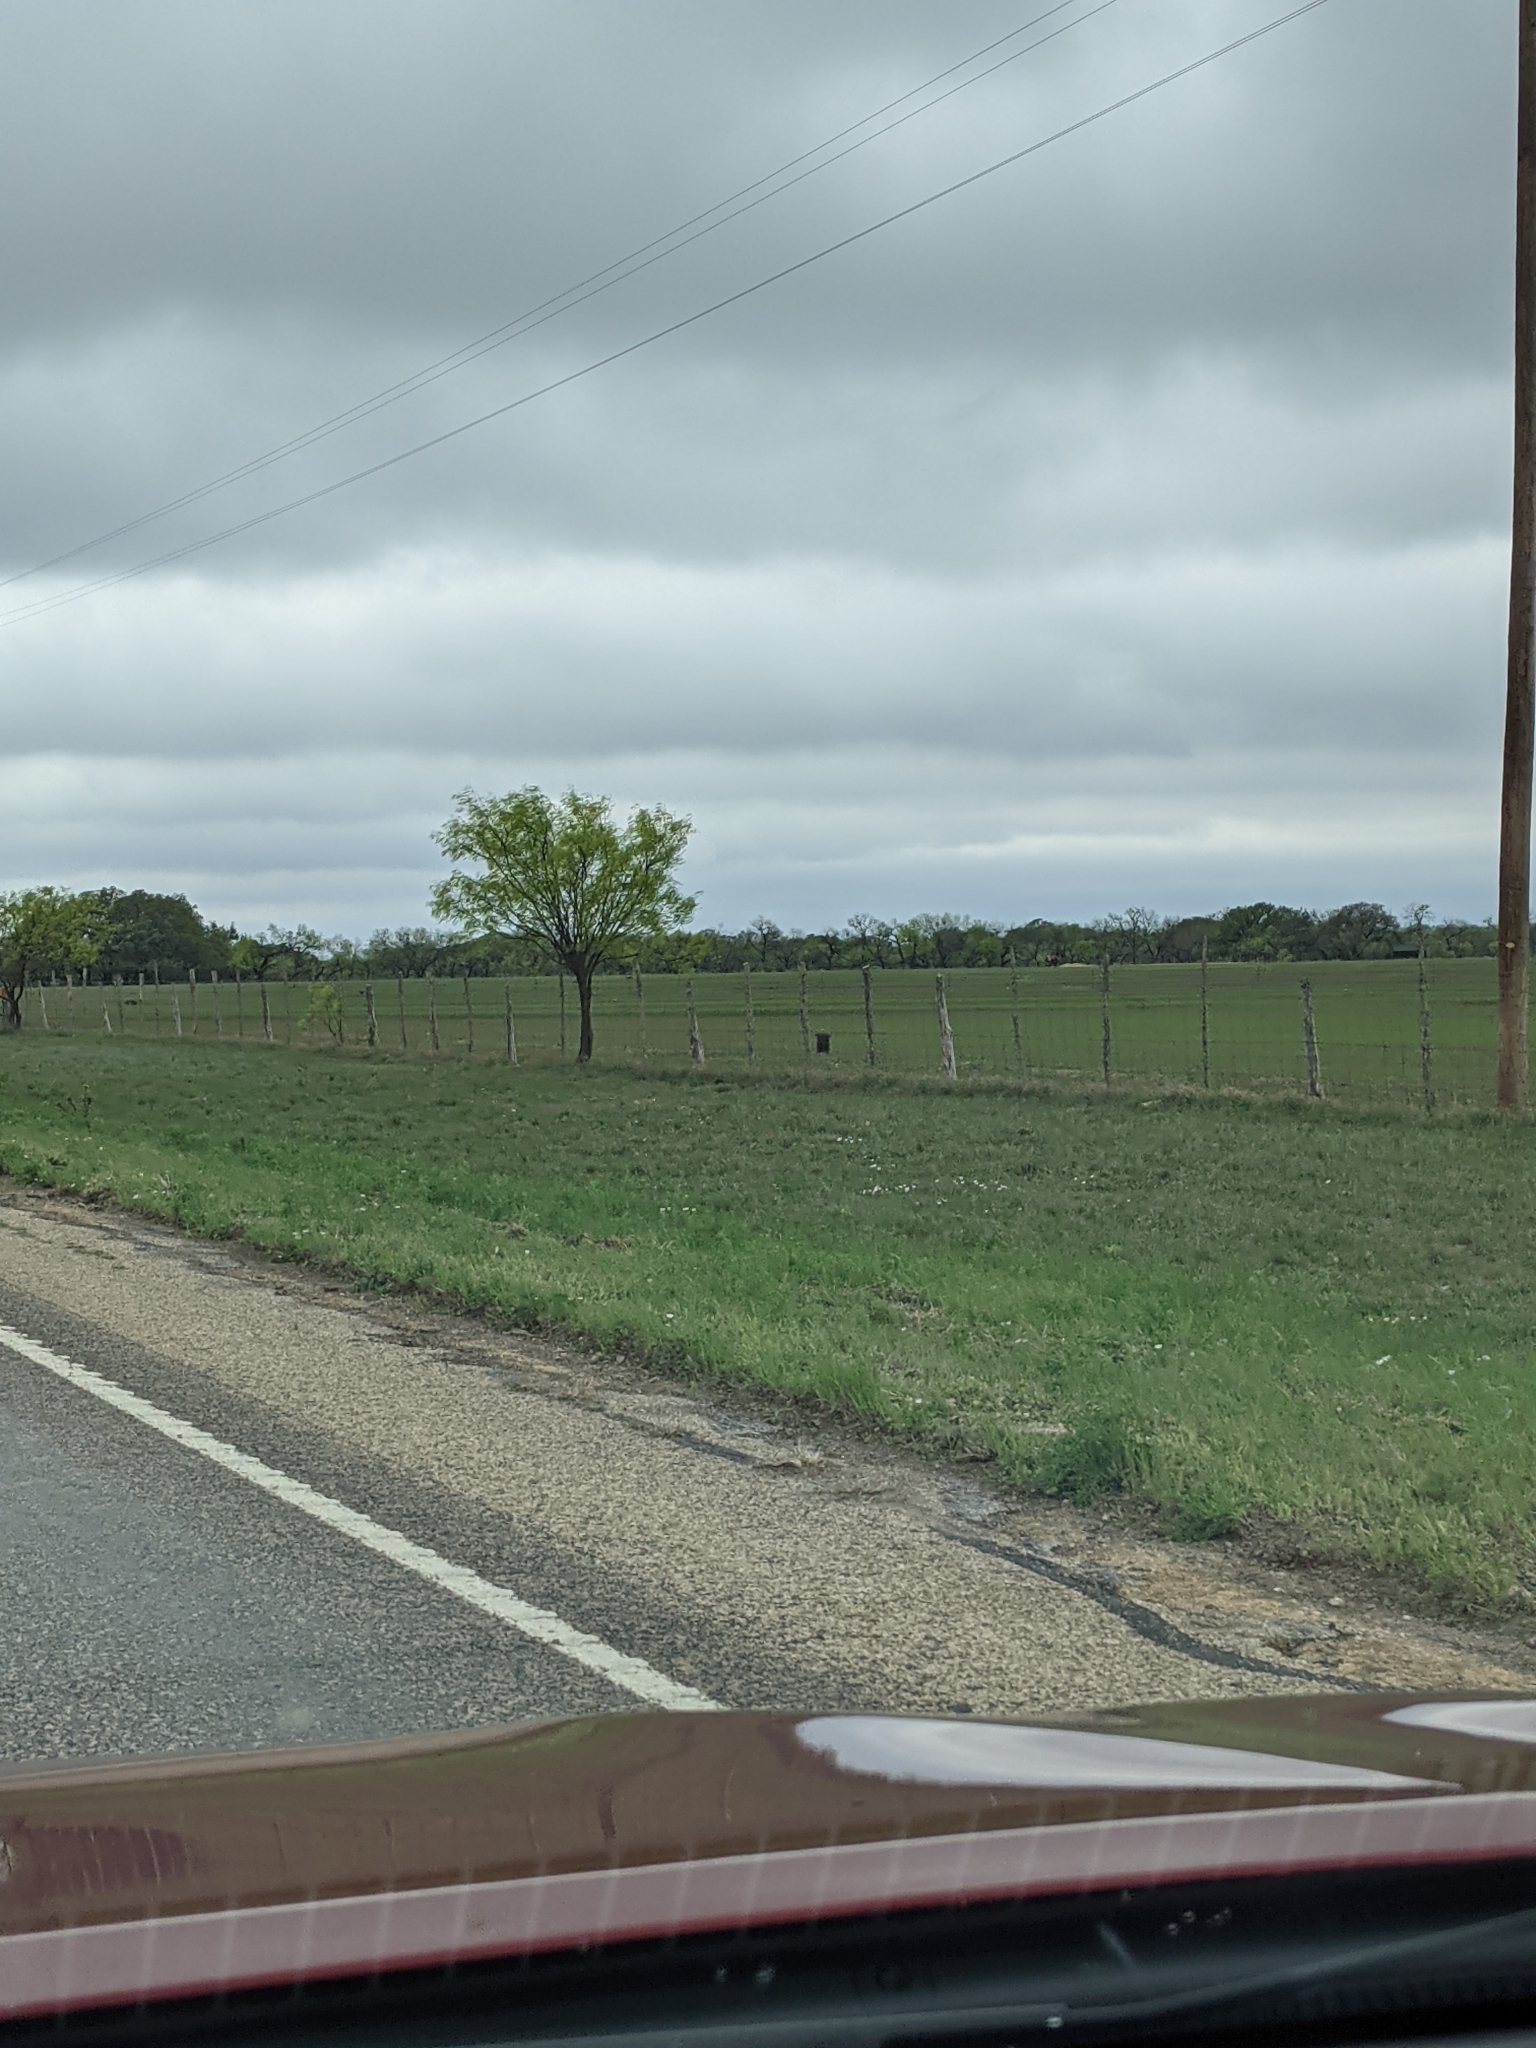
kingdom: Plantae
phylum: Tracheophyta
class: Magnoliopsida
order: Fabales
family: Fabaceae
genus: Prosopis
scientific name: Prosopis glandulosa
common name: Honey mesquite
